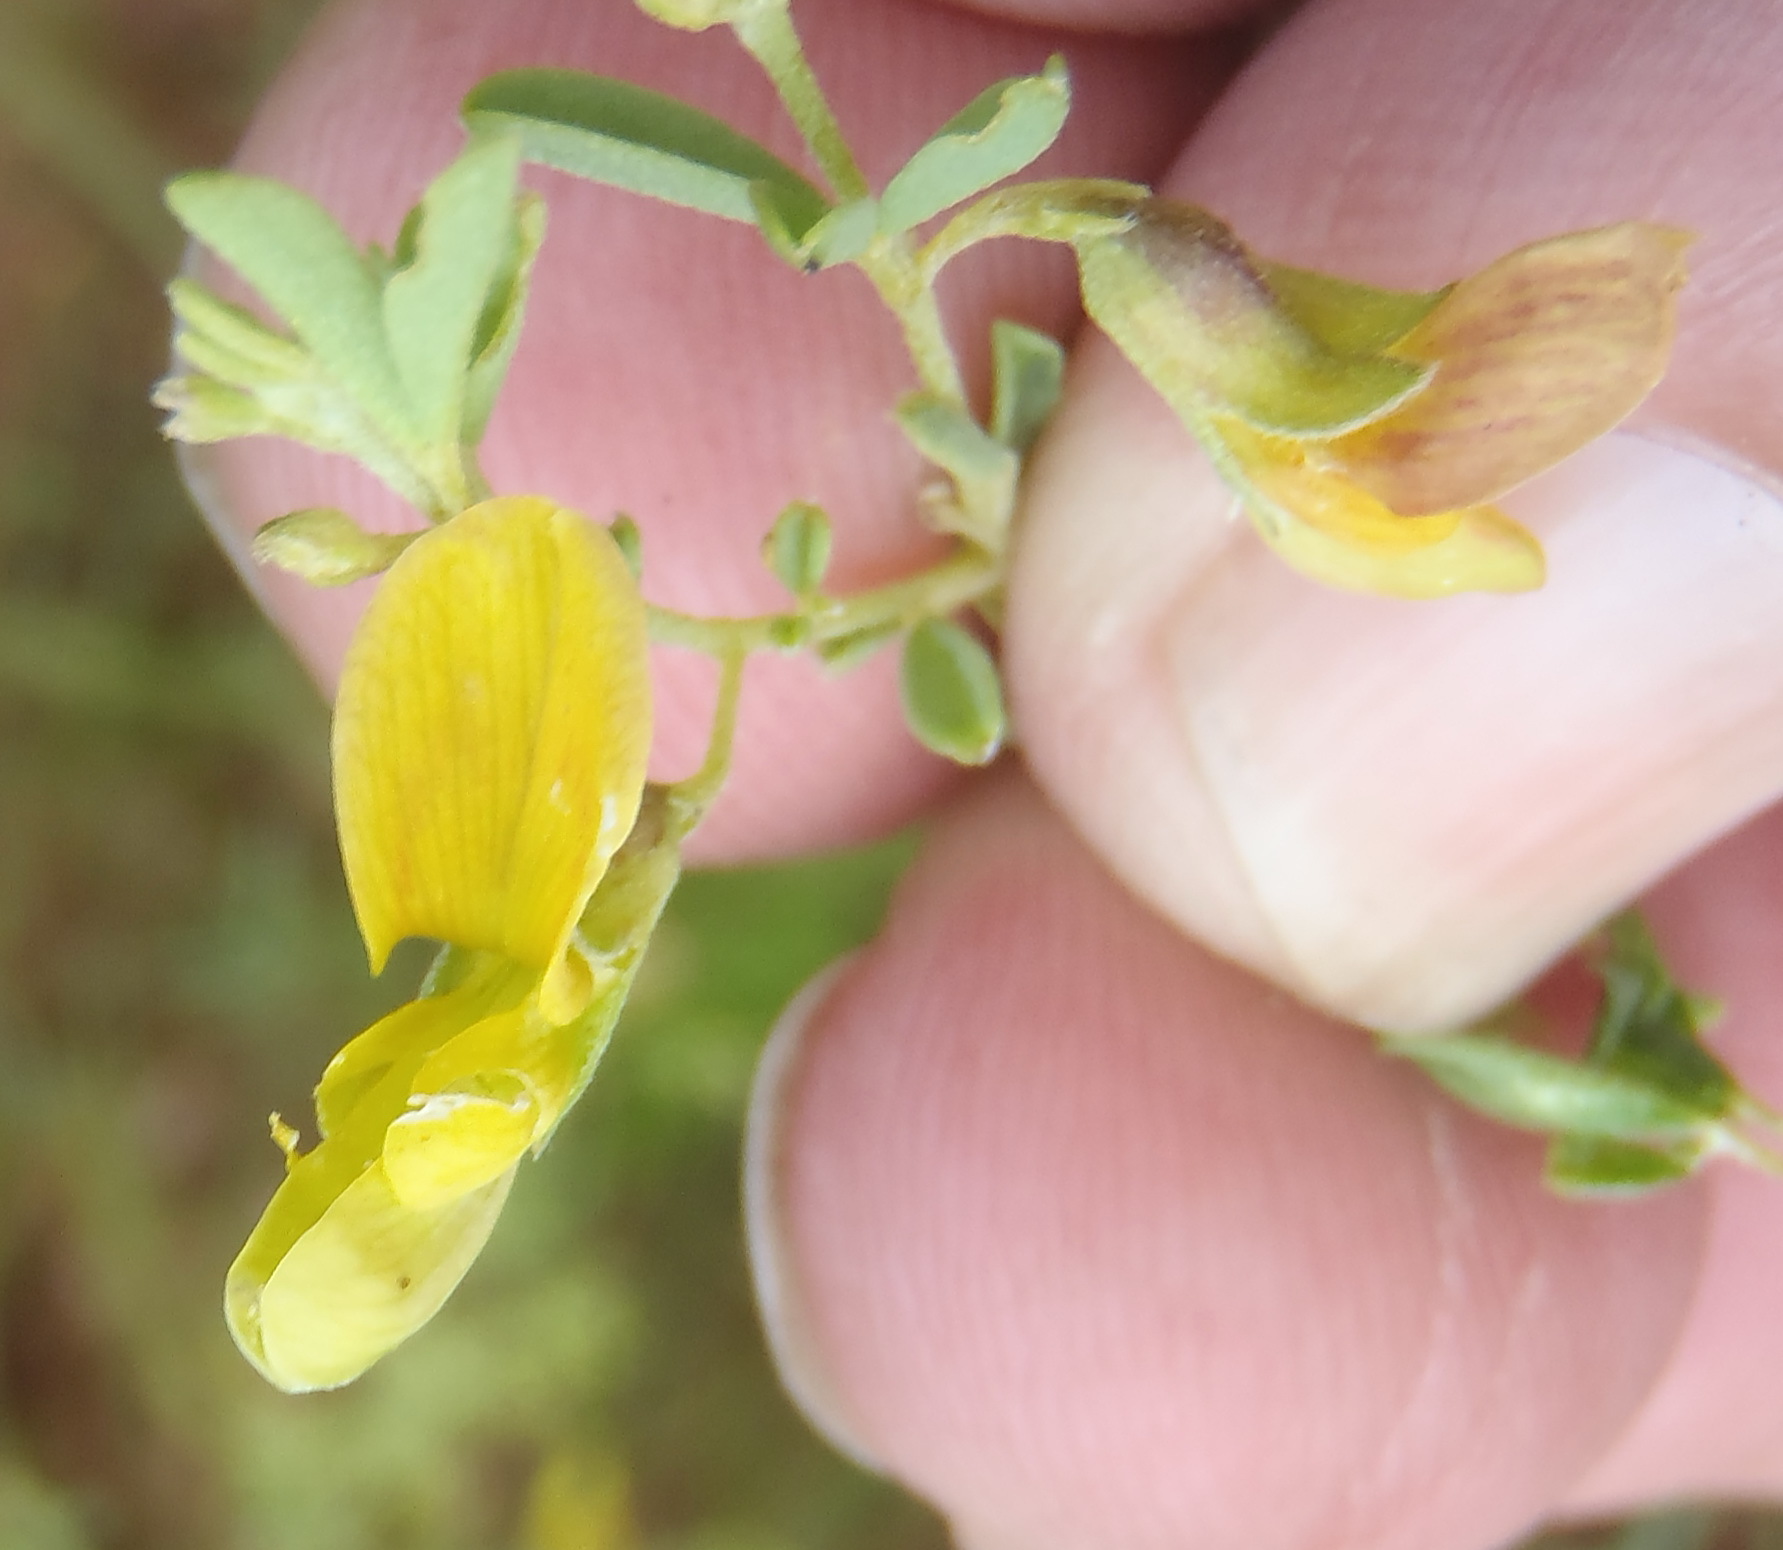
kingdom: Plantae
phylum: Tracheophyta
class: Magnoliopsida
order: Fabales
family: Fabaceae
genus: Dichilus
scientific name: Dichilus lebeckioides
